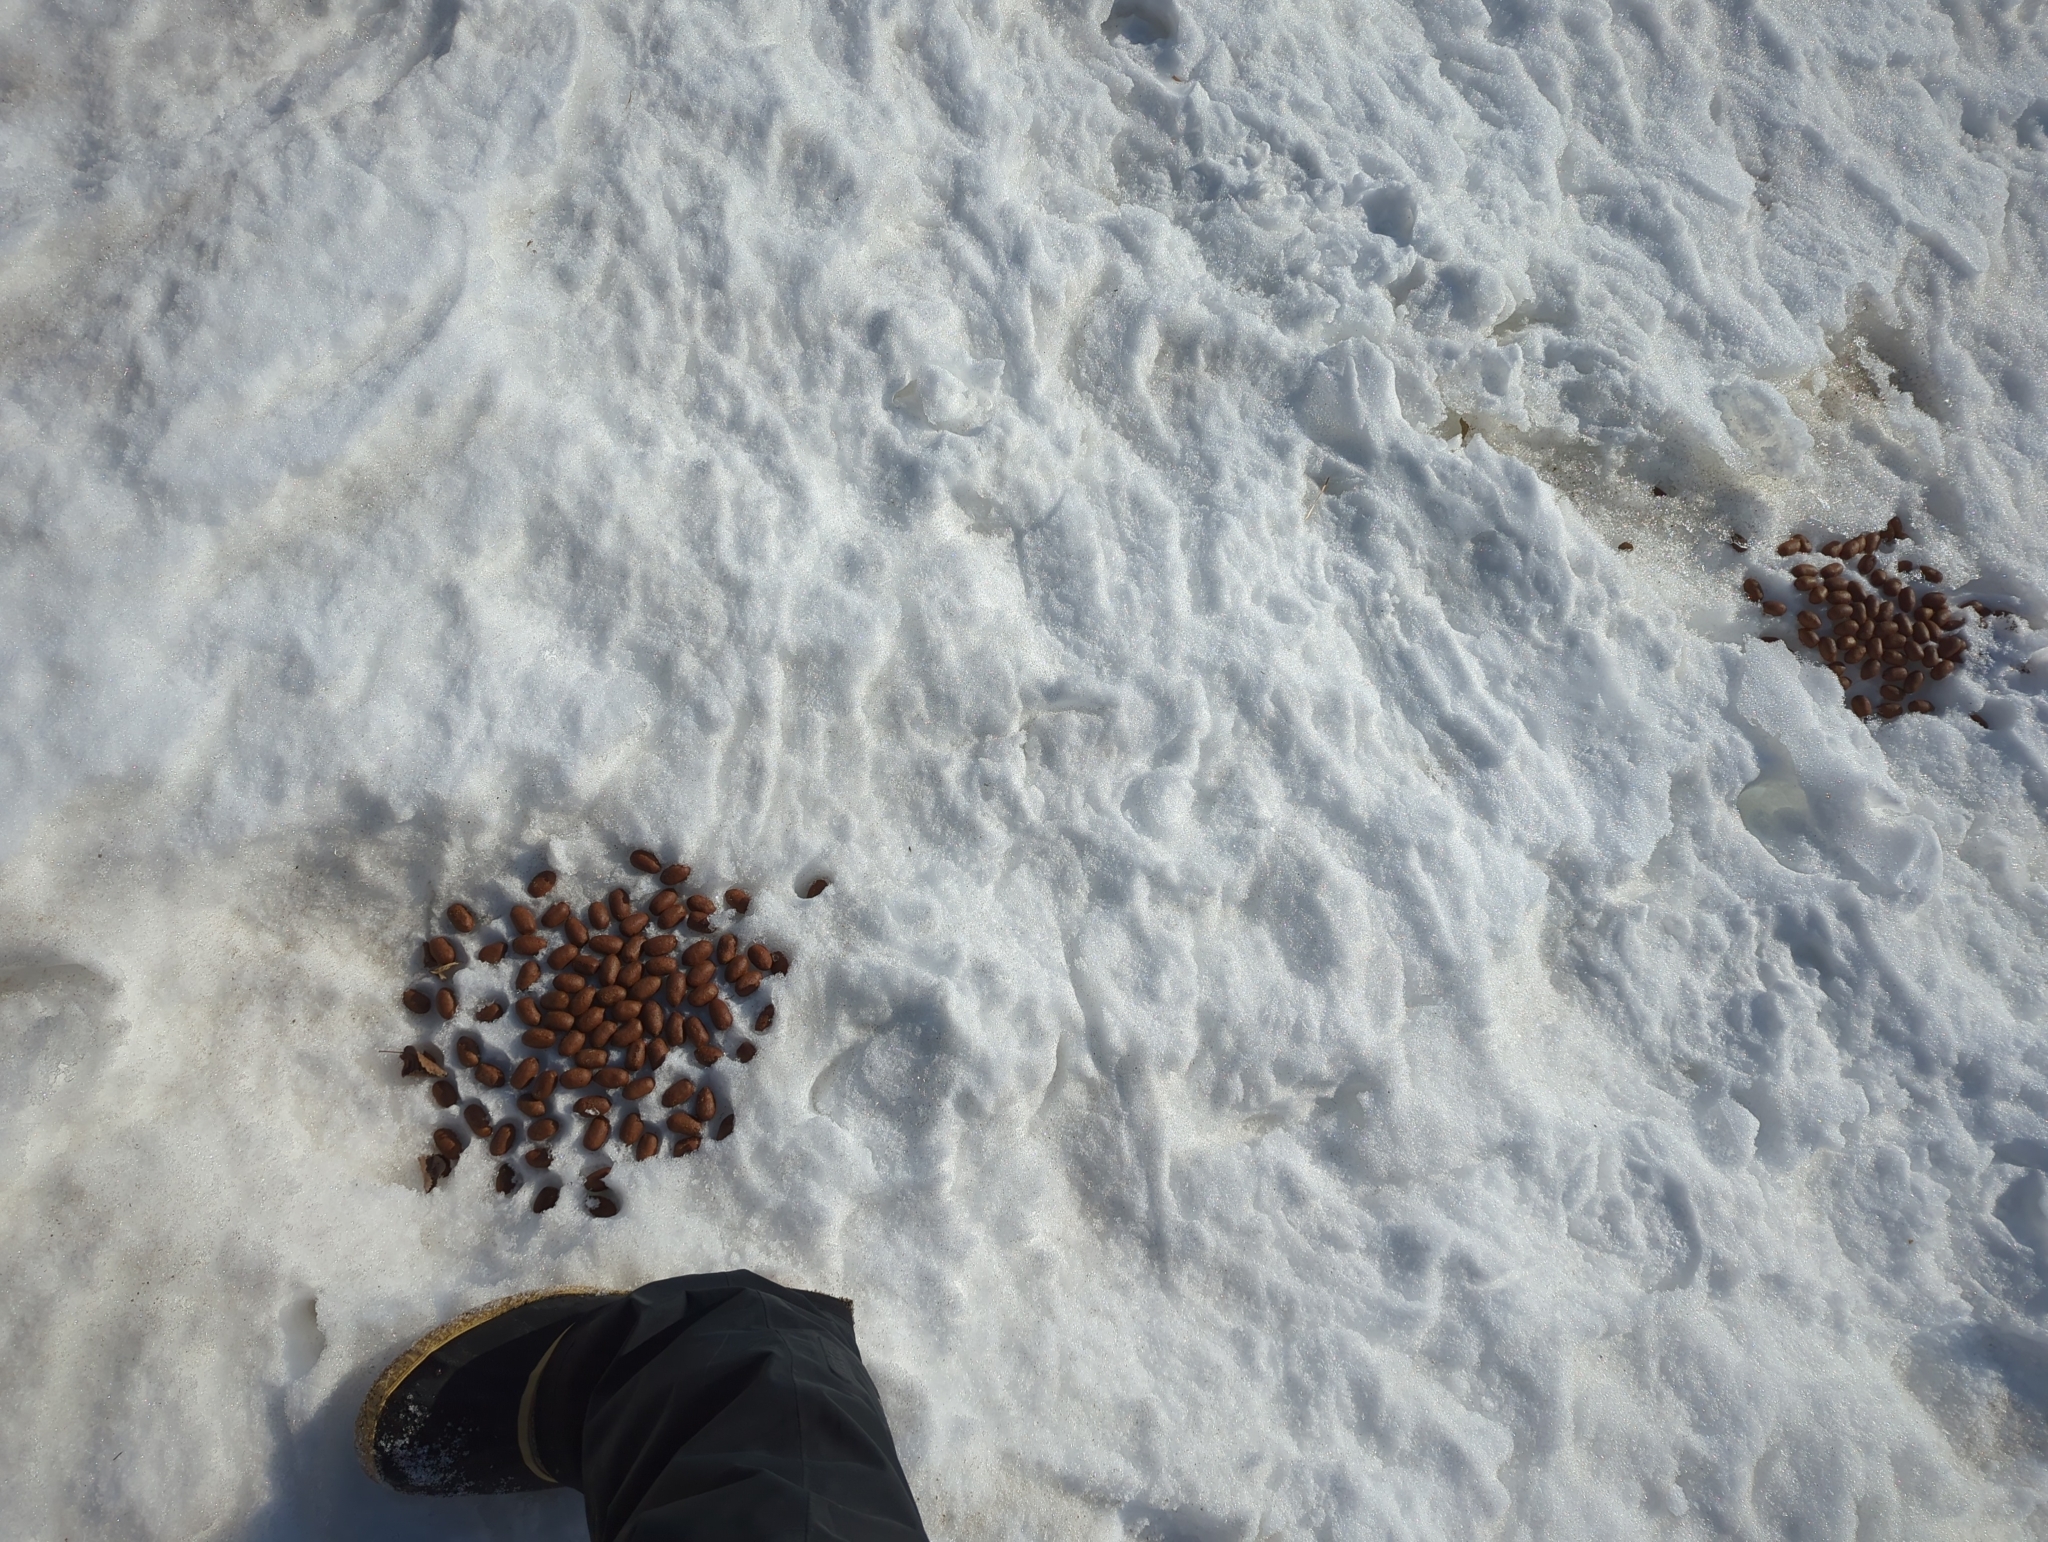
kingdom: Animalia
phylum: Chordata
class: Mammalia
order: Artiodactyla
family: Cervidae
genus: Alces
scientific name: Alces alces
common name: Moose
